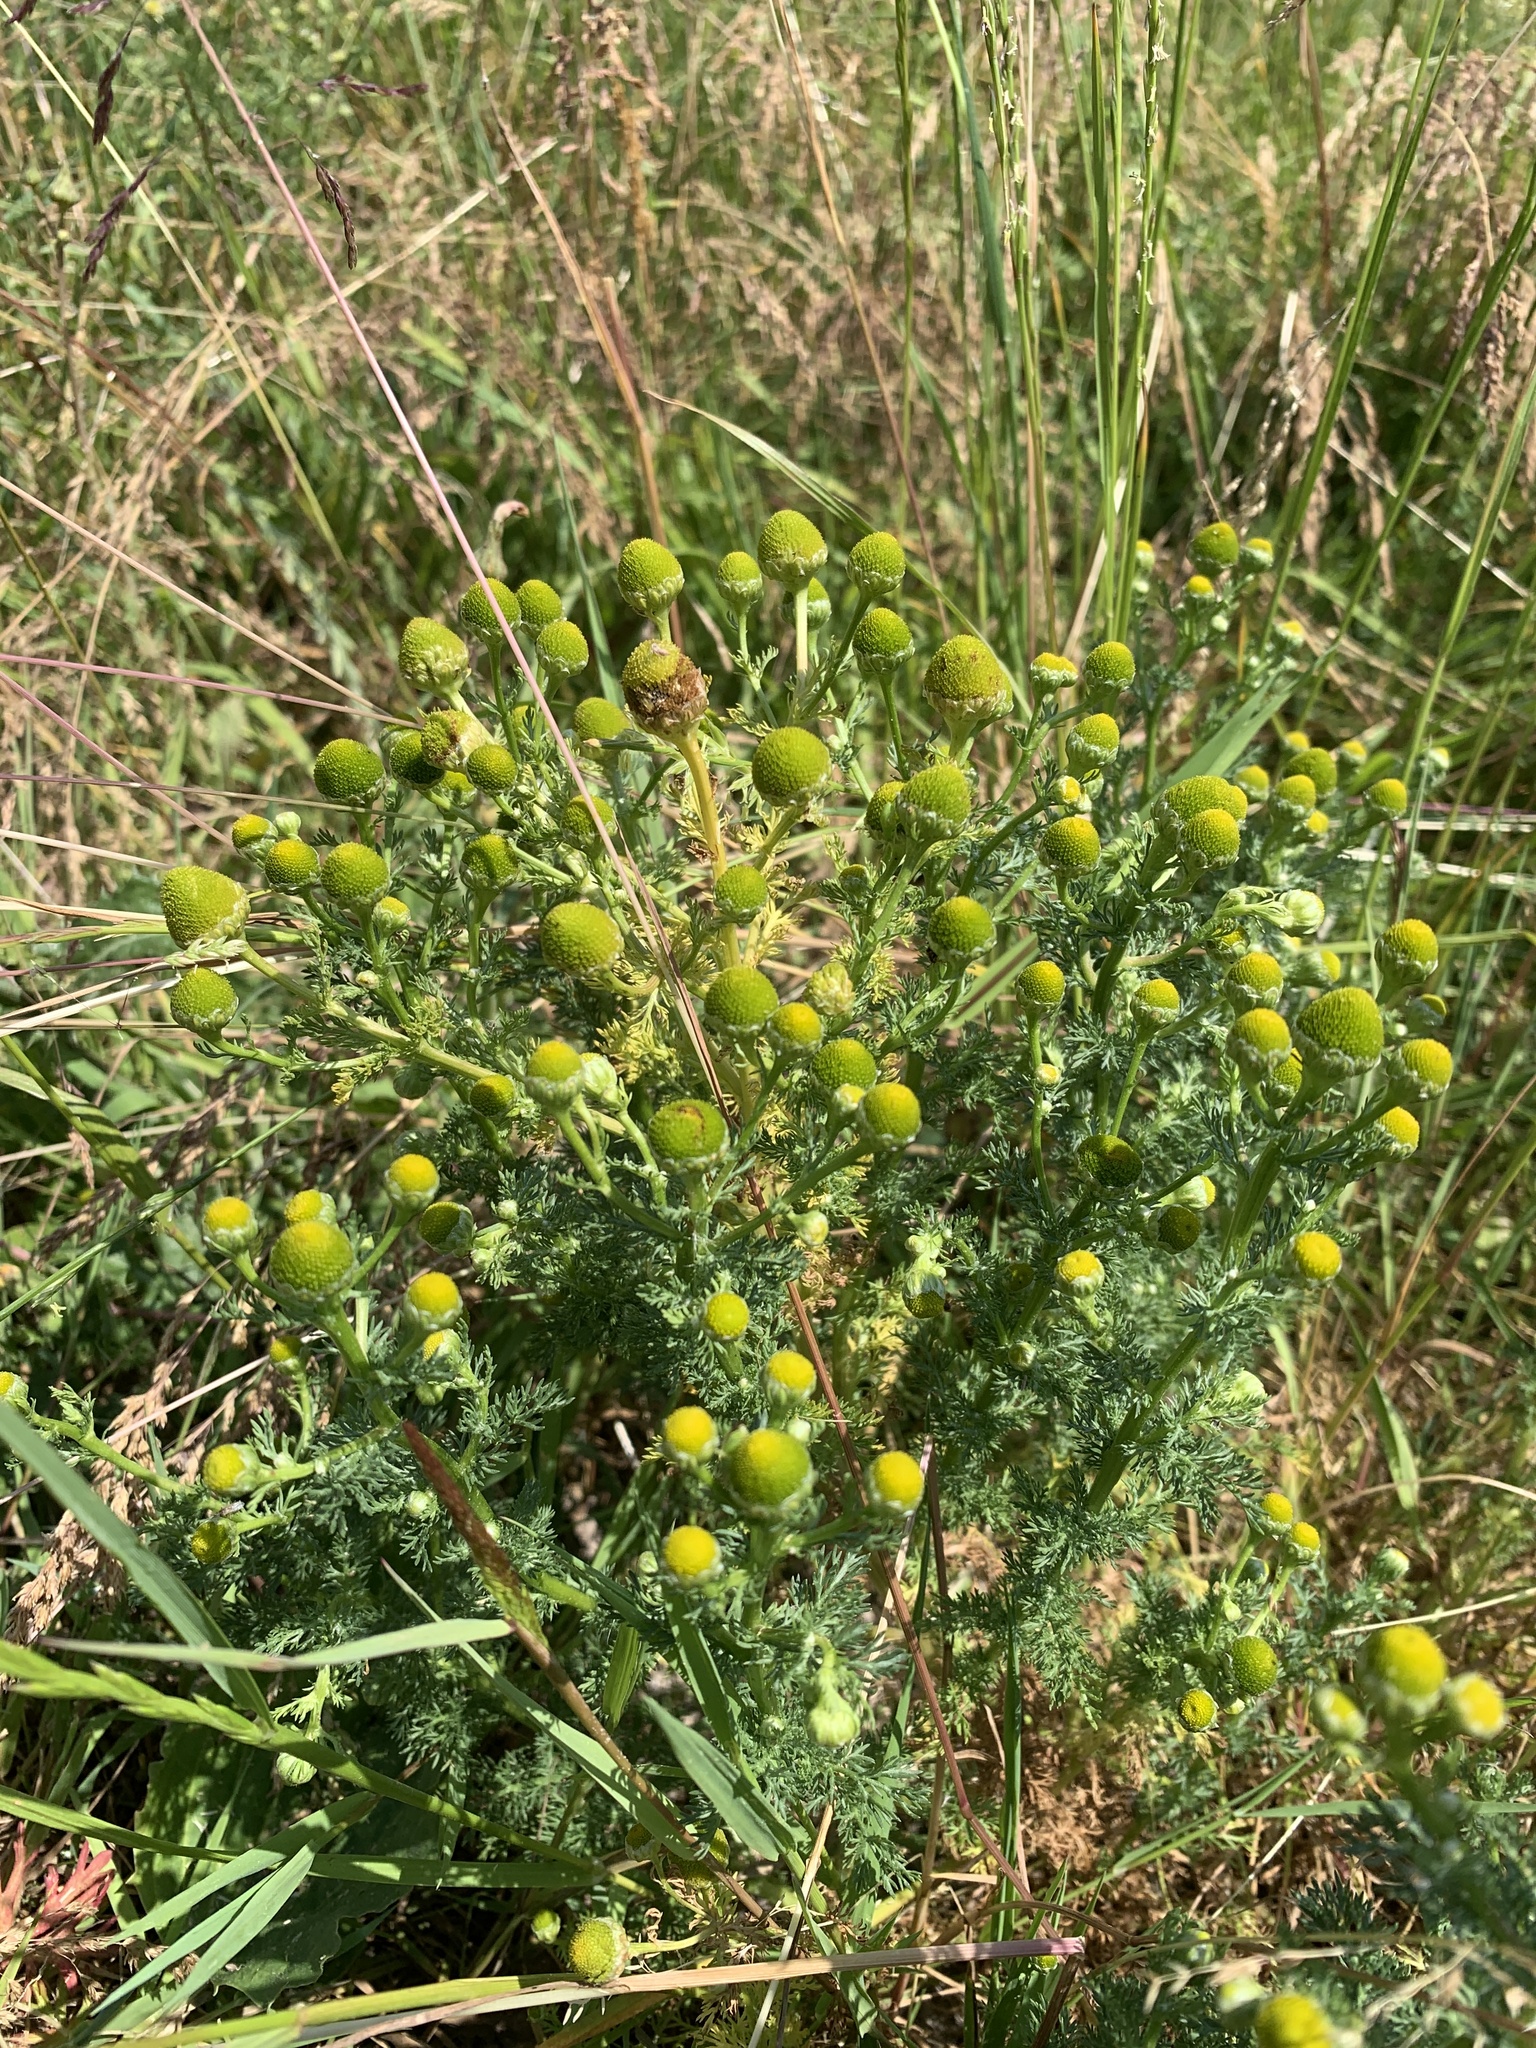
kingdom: Plantae
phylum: Tracheophyta
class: Magnoliopsida
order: Asterales
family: Asteraceae
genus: Matricaria
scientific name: Matricaria discoidea
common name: Disc mayweed
